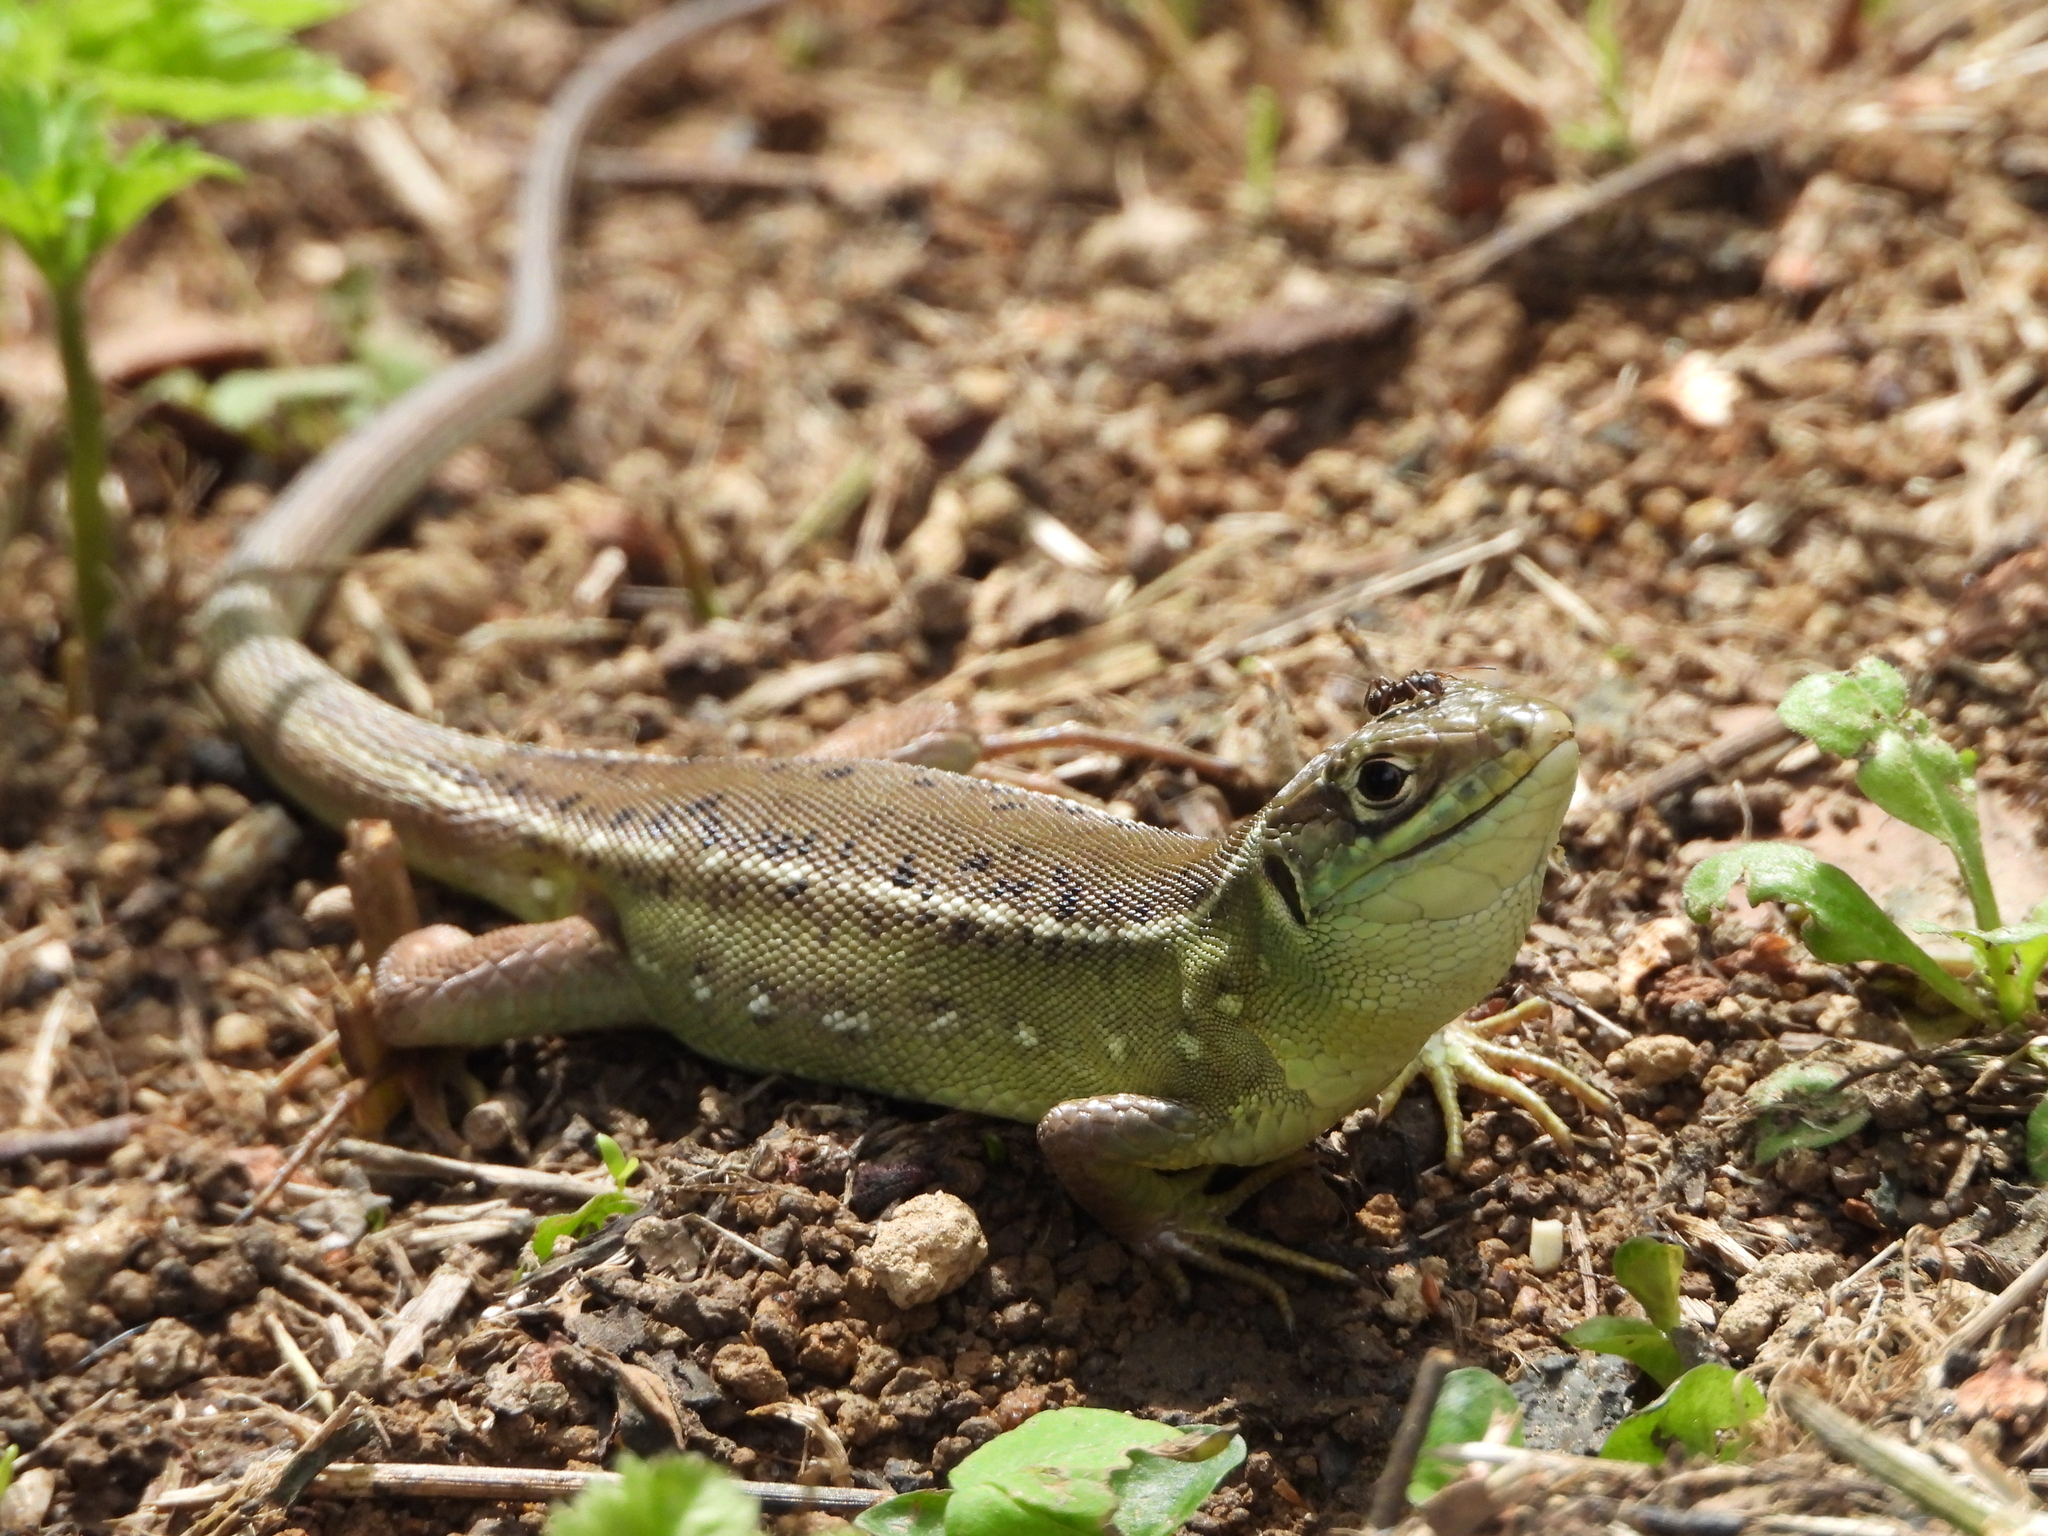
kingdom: Animalia
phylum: Chordata
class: Squamata
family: Lacertidae
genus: Lacerta
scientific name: Lacerta bilineata
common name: Western green lizard
